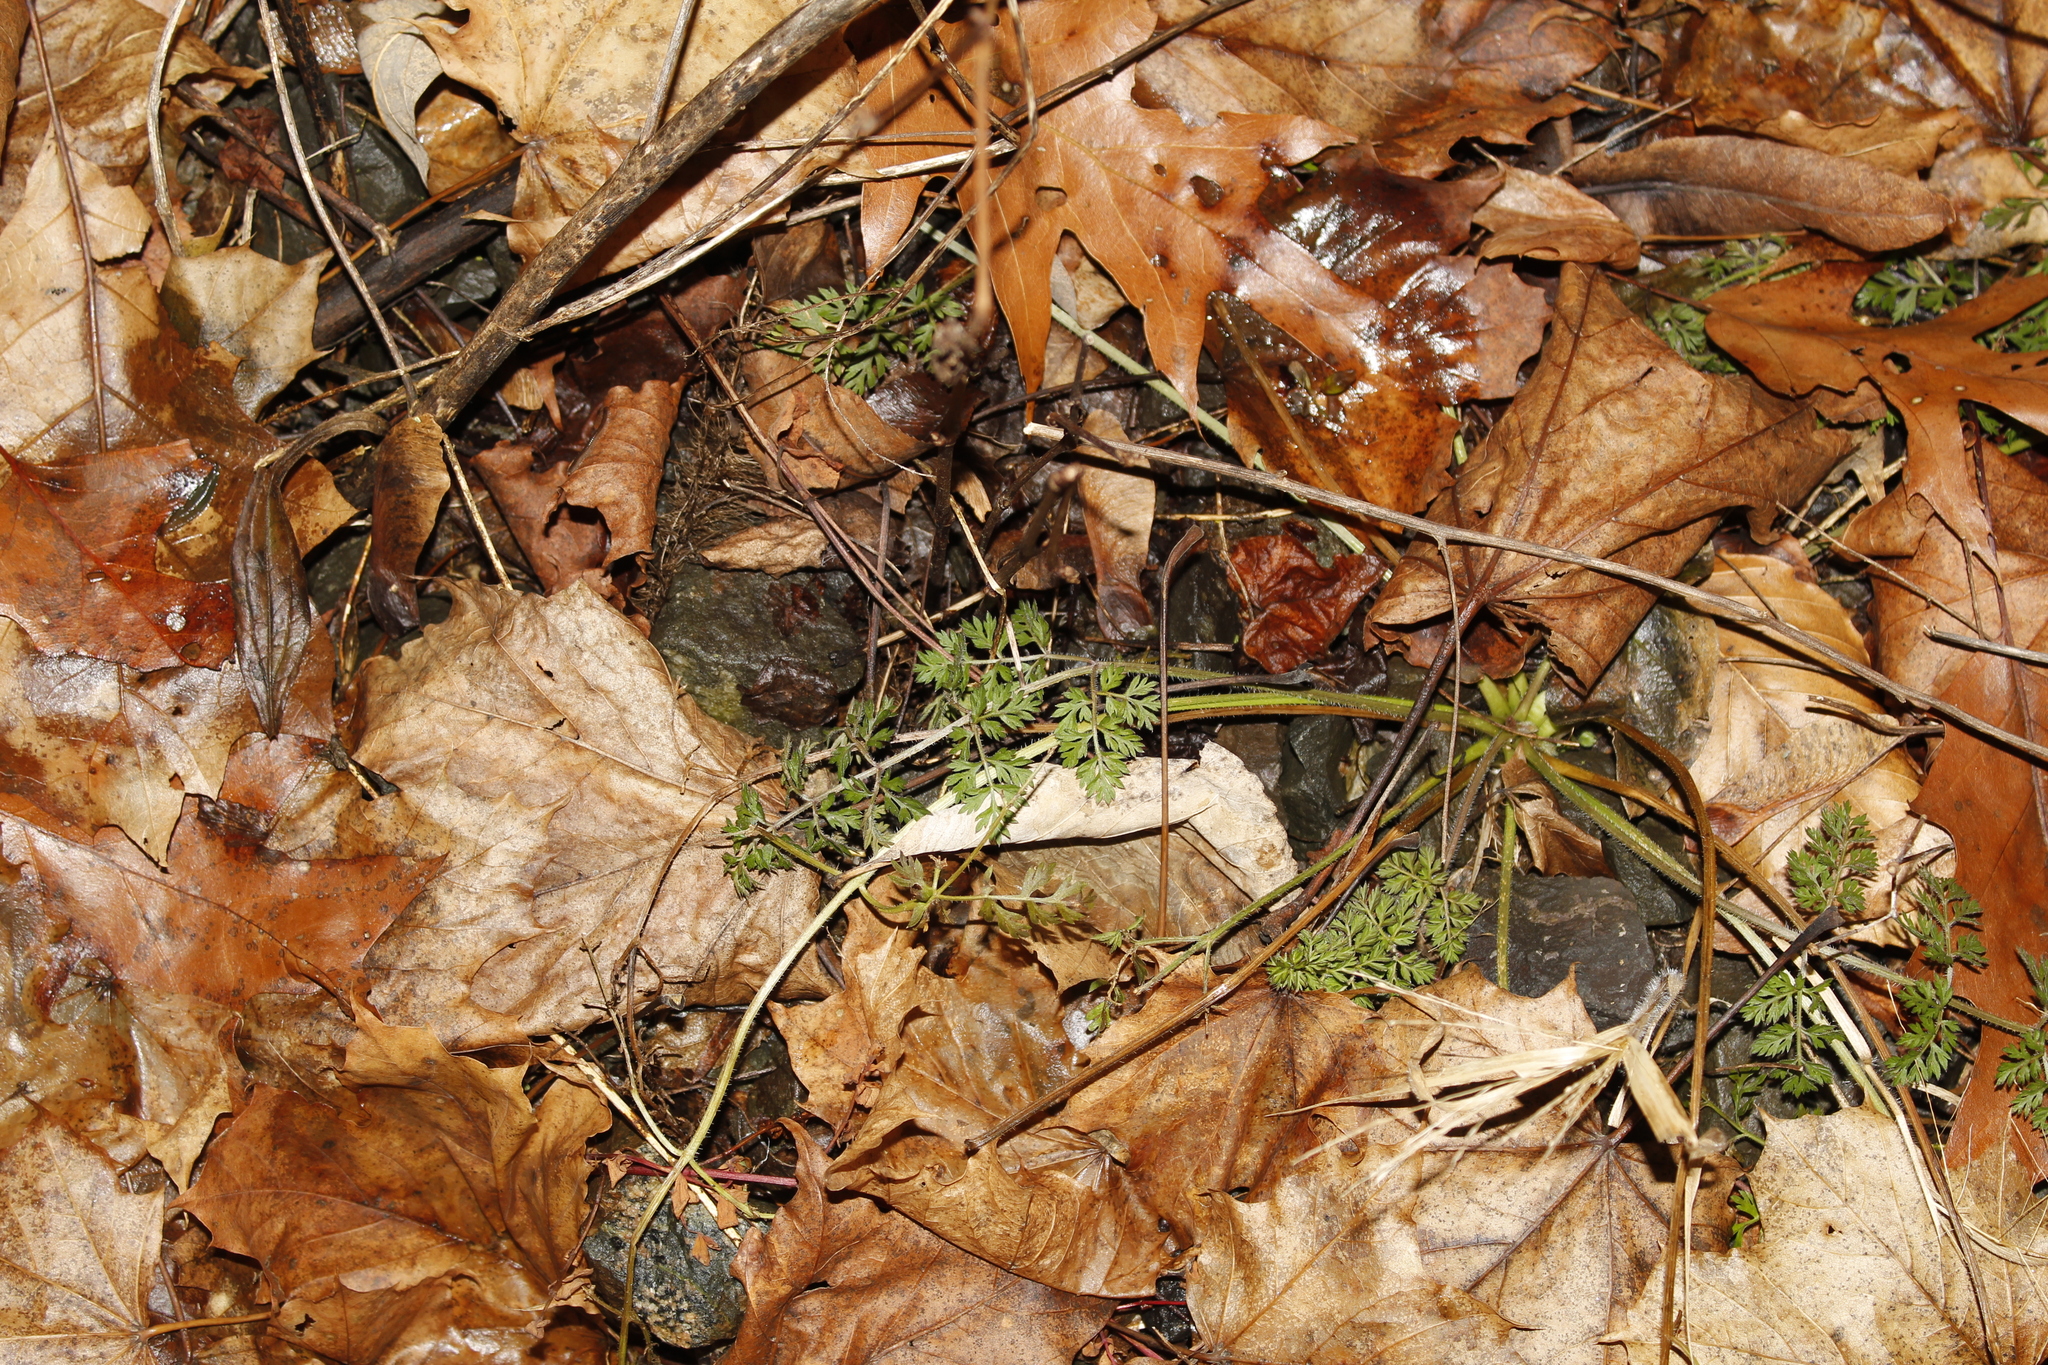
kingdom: Plantae
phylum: Tracheophyta
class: Magnoliopsida
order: Apiales
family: Apiaceae
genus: Daucus
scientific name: Daucus carota
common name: Wild carrot
